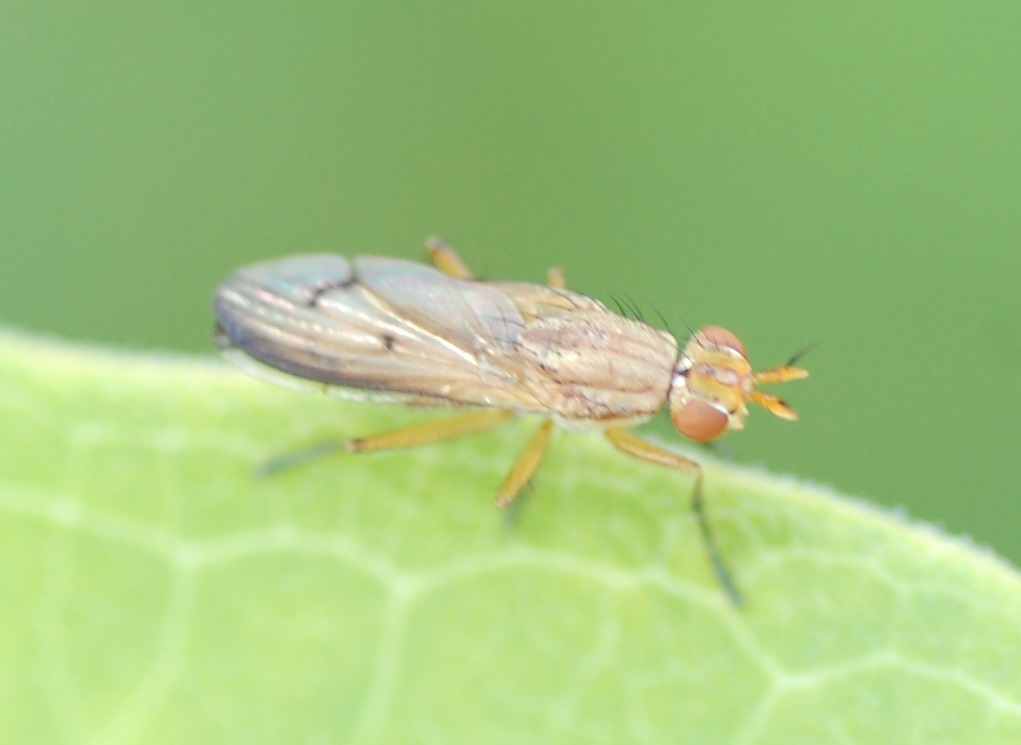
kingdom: Animalia
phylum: Arthropoda
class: Insecta
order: Diptera
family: Sciomyzidae
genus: Tetanocera
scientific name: Tetanocera plebeja
